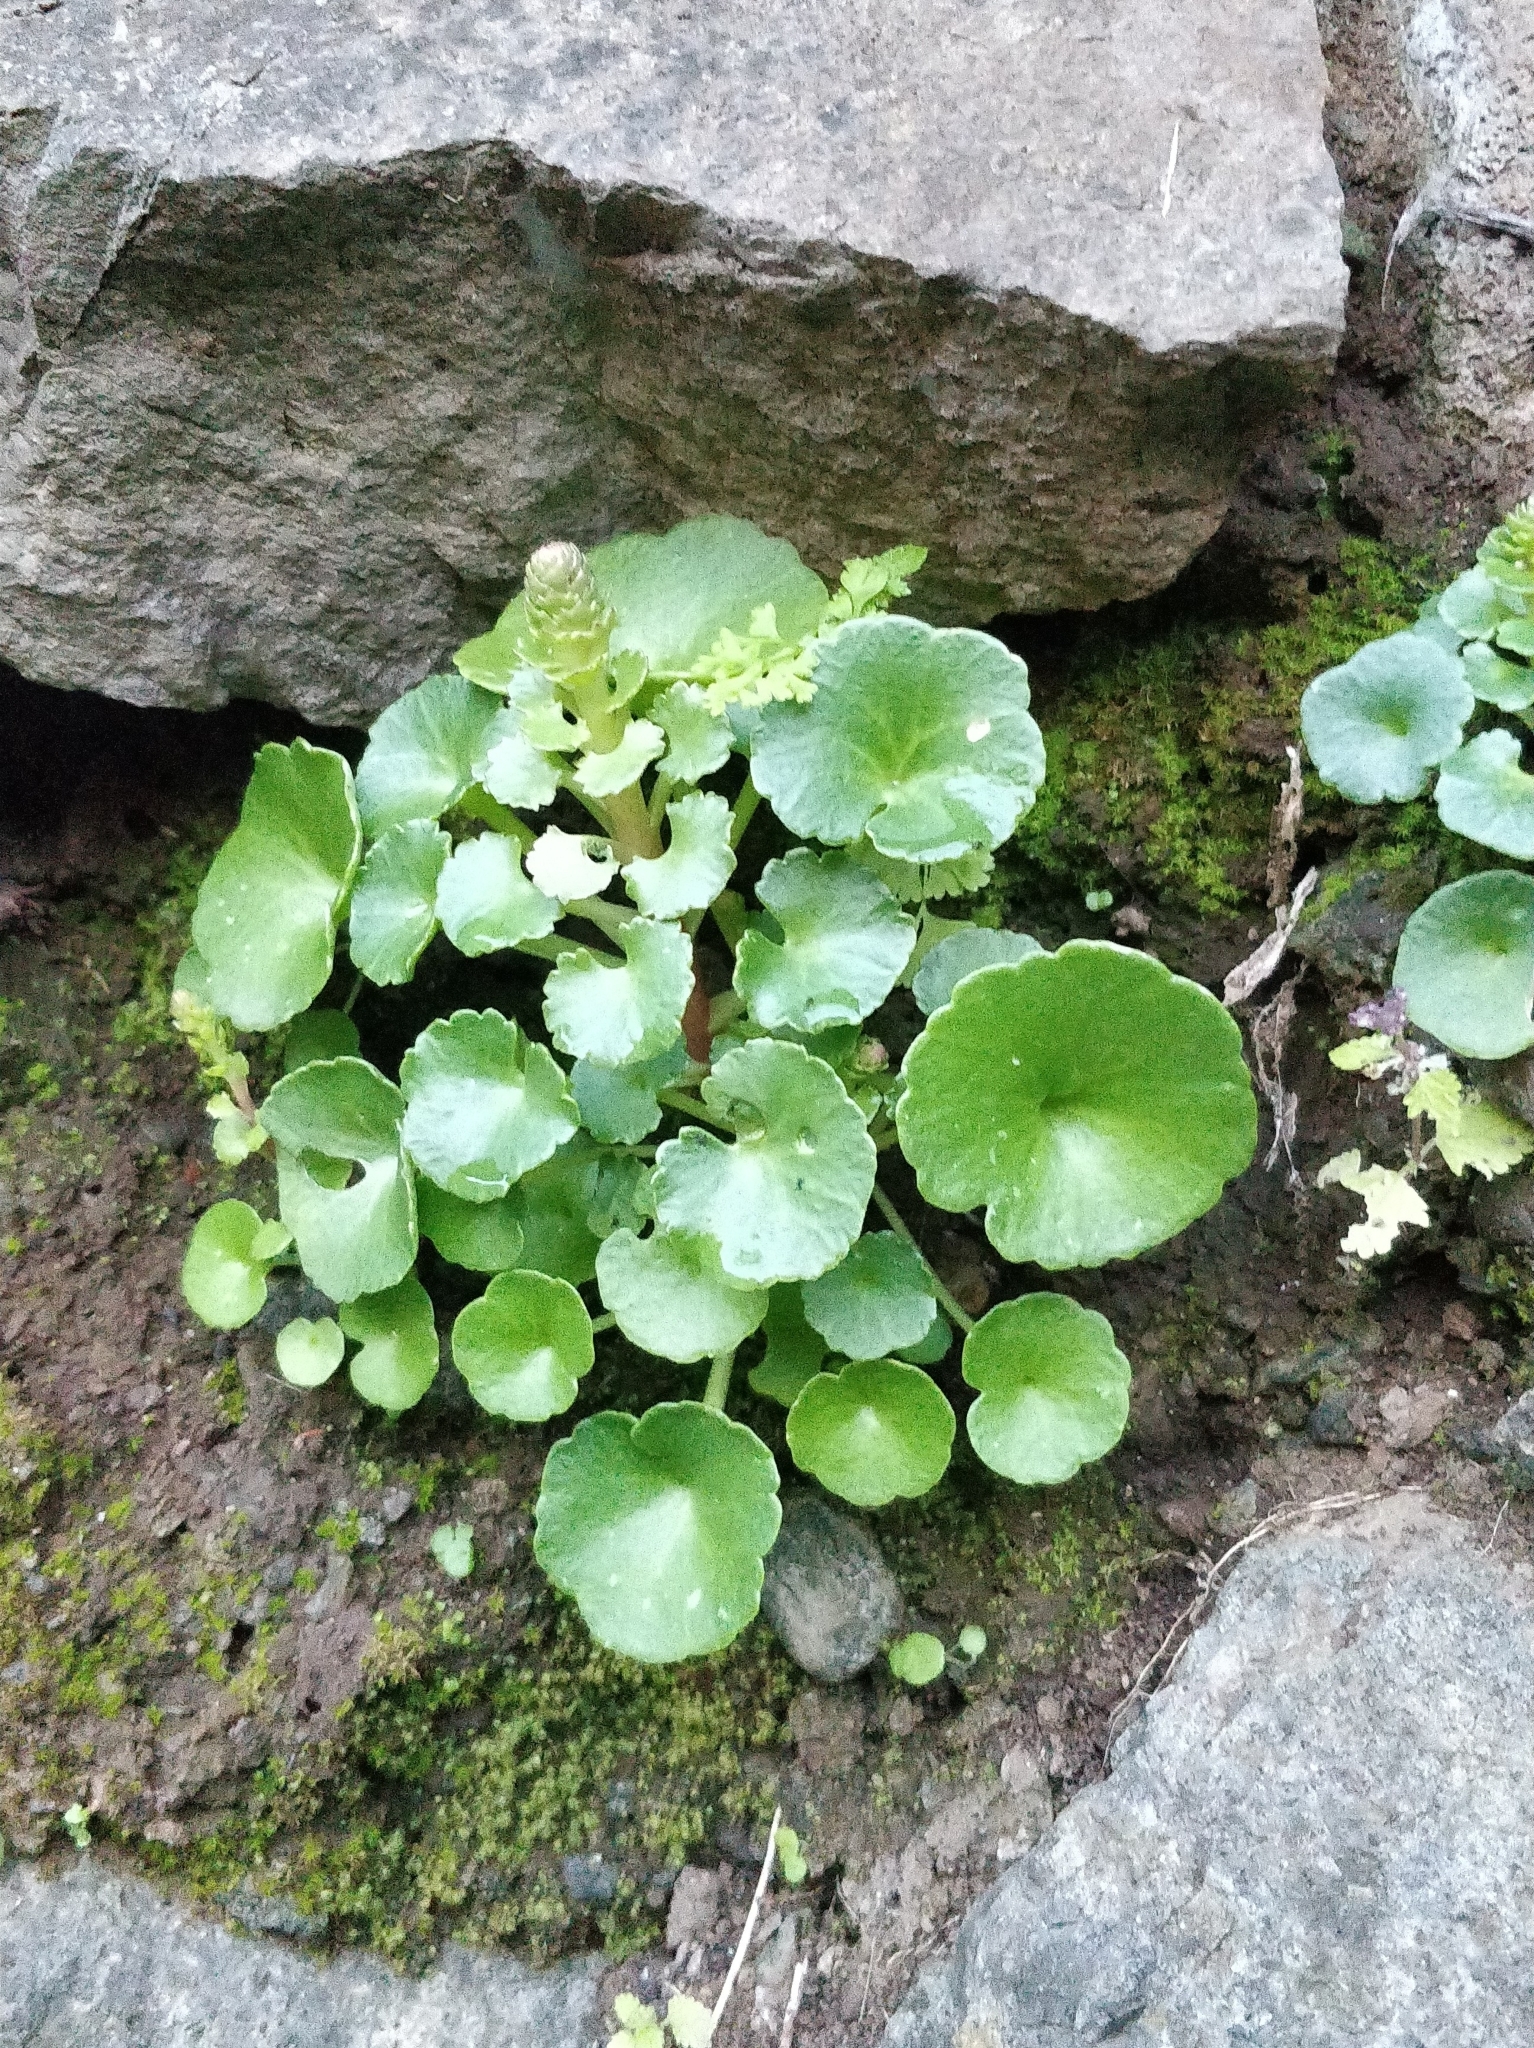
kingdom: Plantae
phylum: Tracheophyta
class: Magnoliopsida
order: Saxifragales
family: Crassulaceae
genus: Umbilicus
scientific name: Umbilicus rupestris
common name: Navelwort
